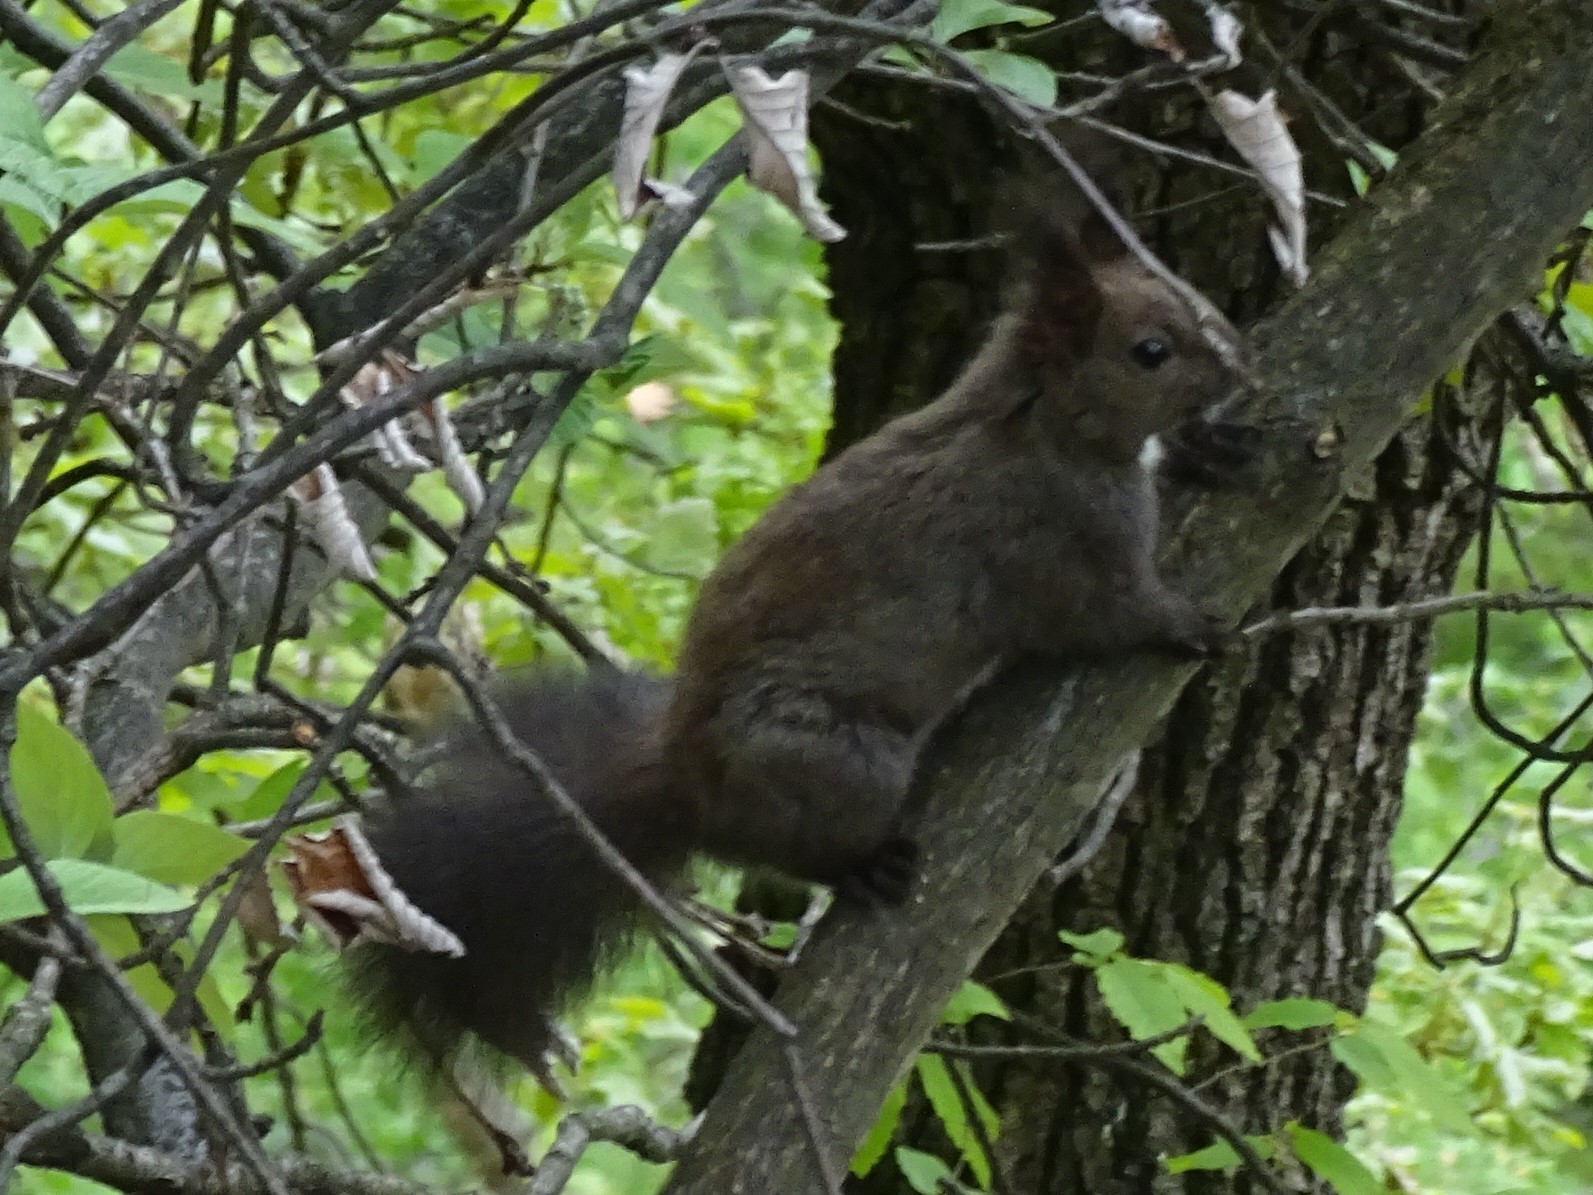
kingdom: Animalia
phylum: Chordata
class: Mammalia
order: Rodentia
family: Sciuridae
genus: Sciurus
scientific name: Sciurus vulgaris
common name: Eurasian red squirrel
